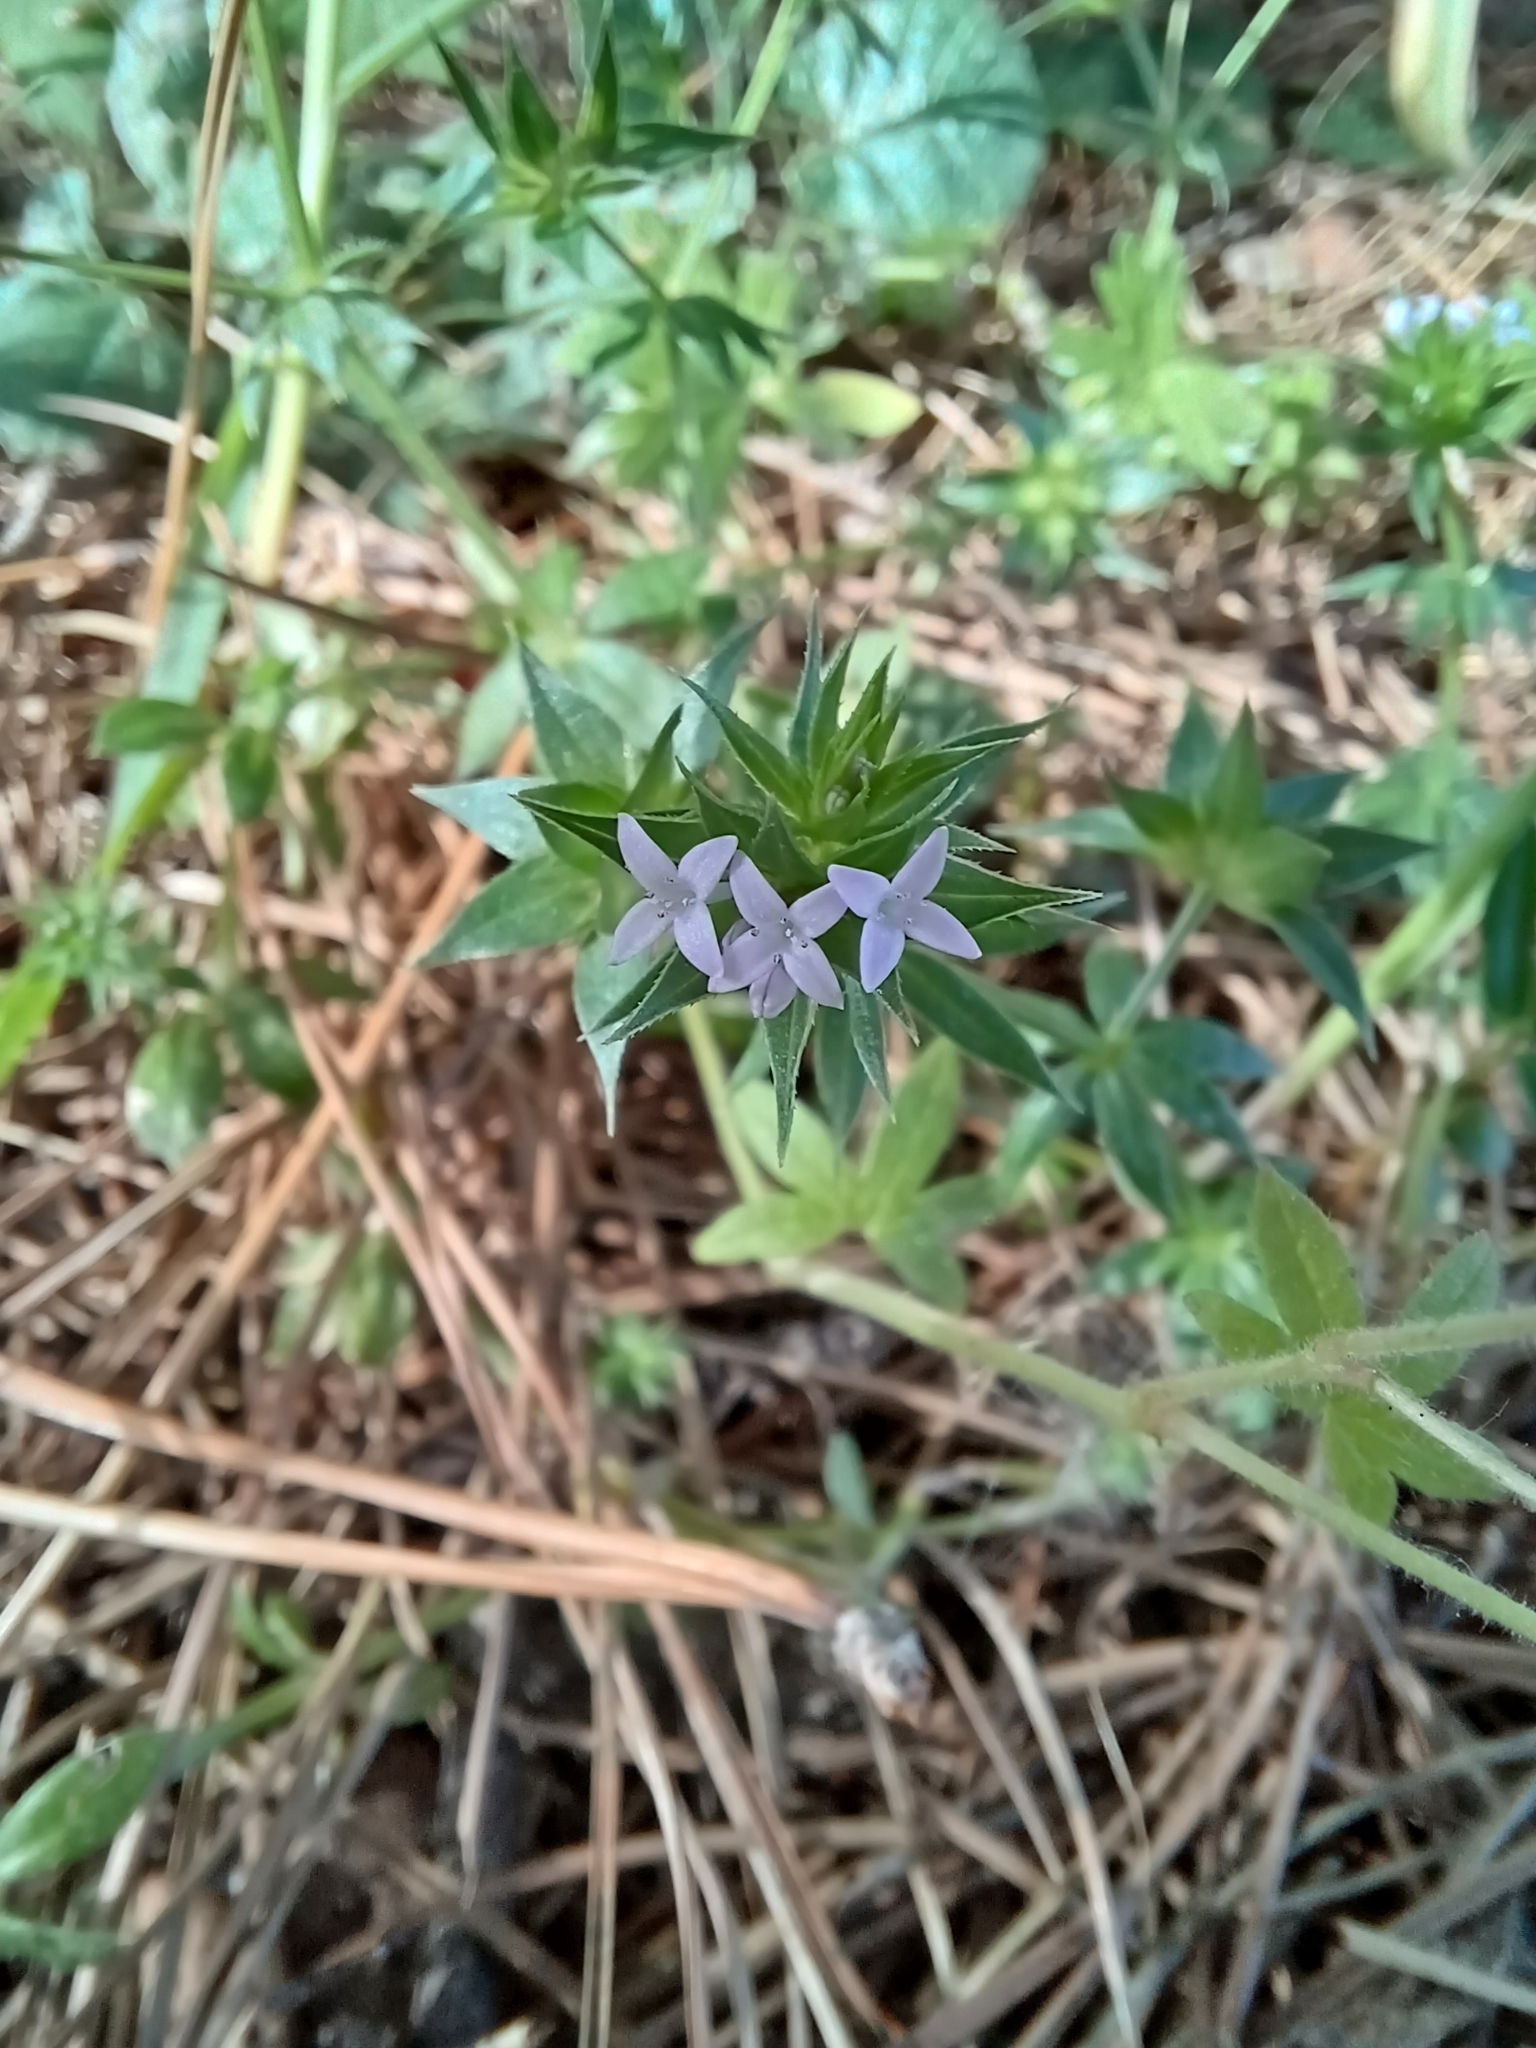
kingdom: Plantae
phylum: Tracheophyta
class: Magnoliopsida
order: Gentianales
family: Rubiaceae
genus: Sherardia
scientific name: Sherardia arvensis
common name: Field madder
